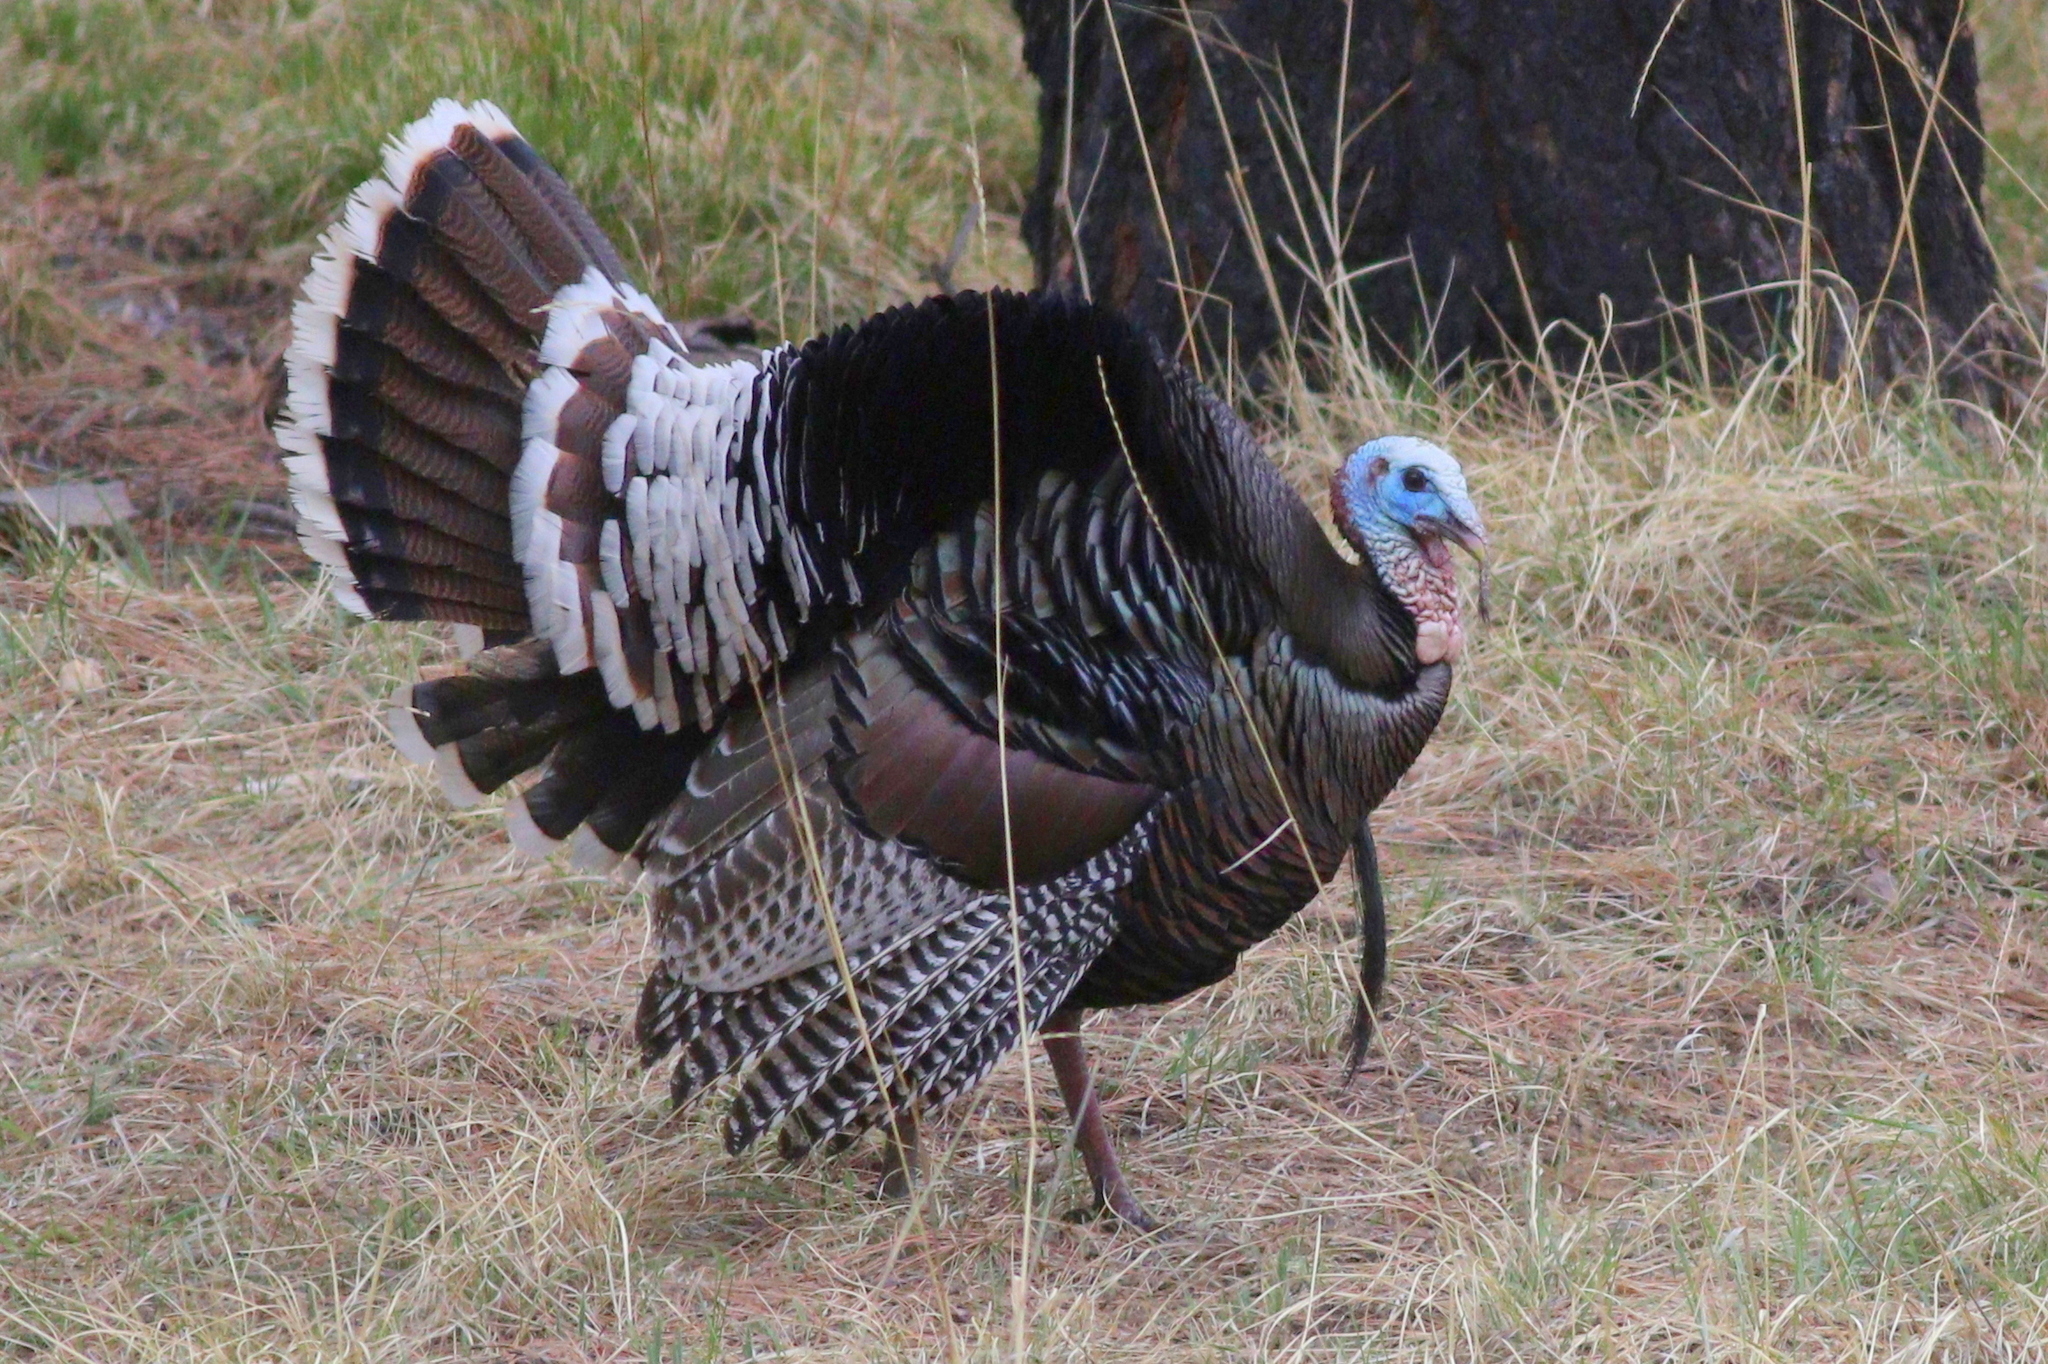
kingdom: Animalia
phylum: Chordata
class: Aves
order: Galliformes
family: Phasianidae
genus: Meleagris
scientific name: Meleagris gallopavo
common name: Wild turkey
